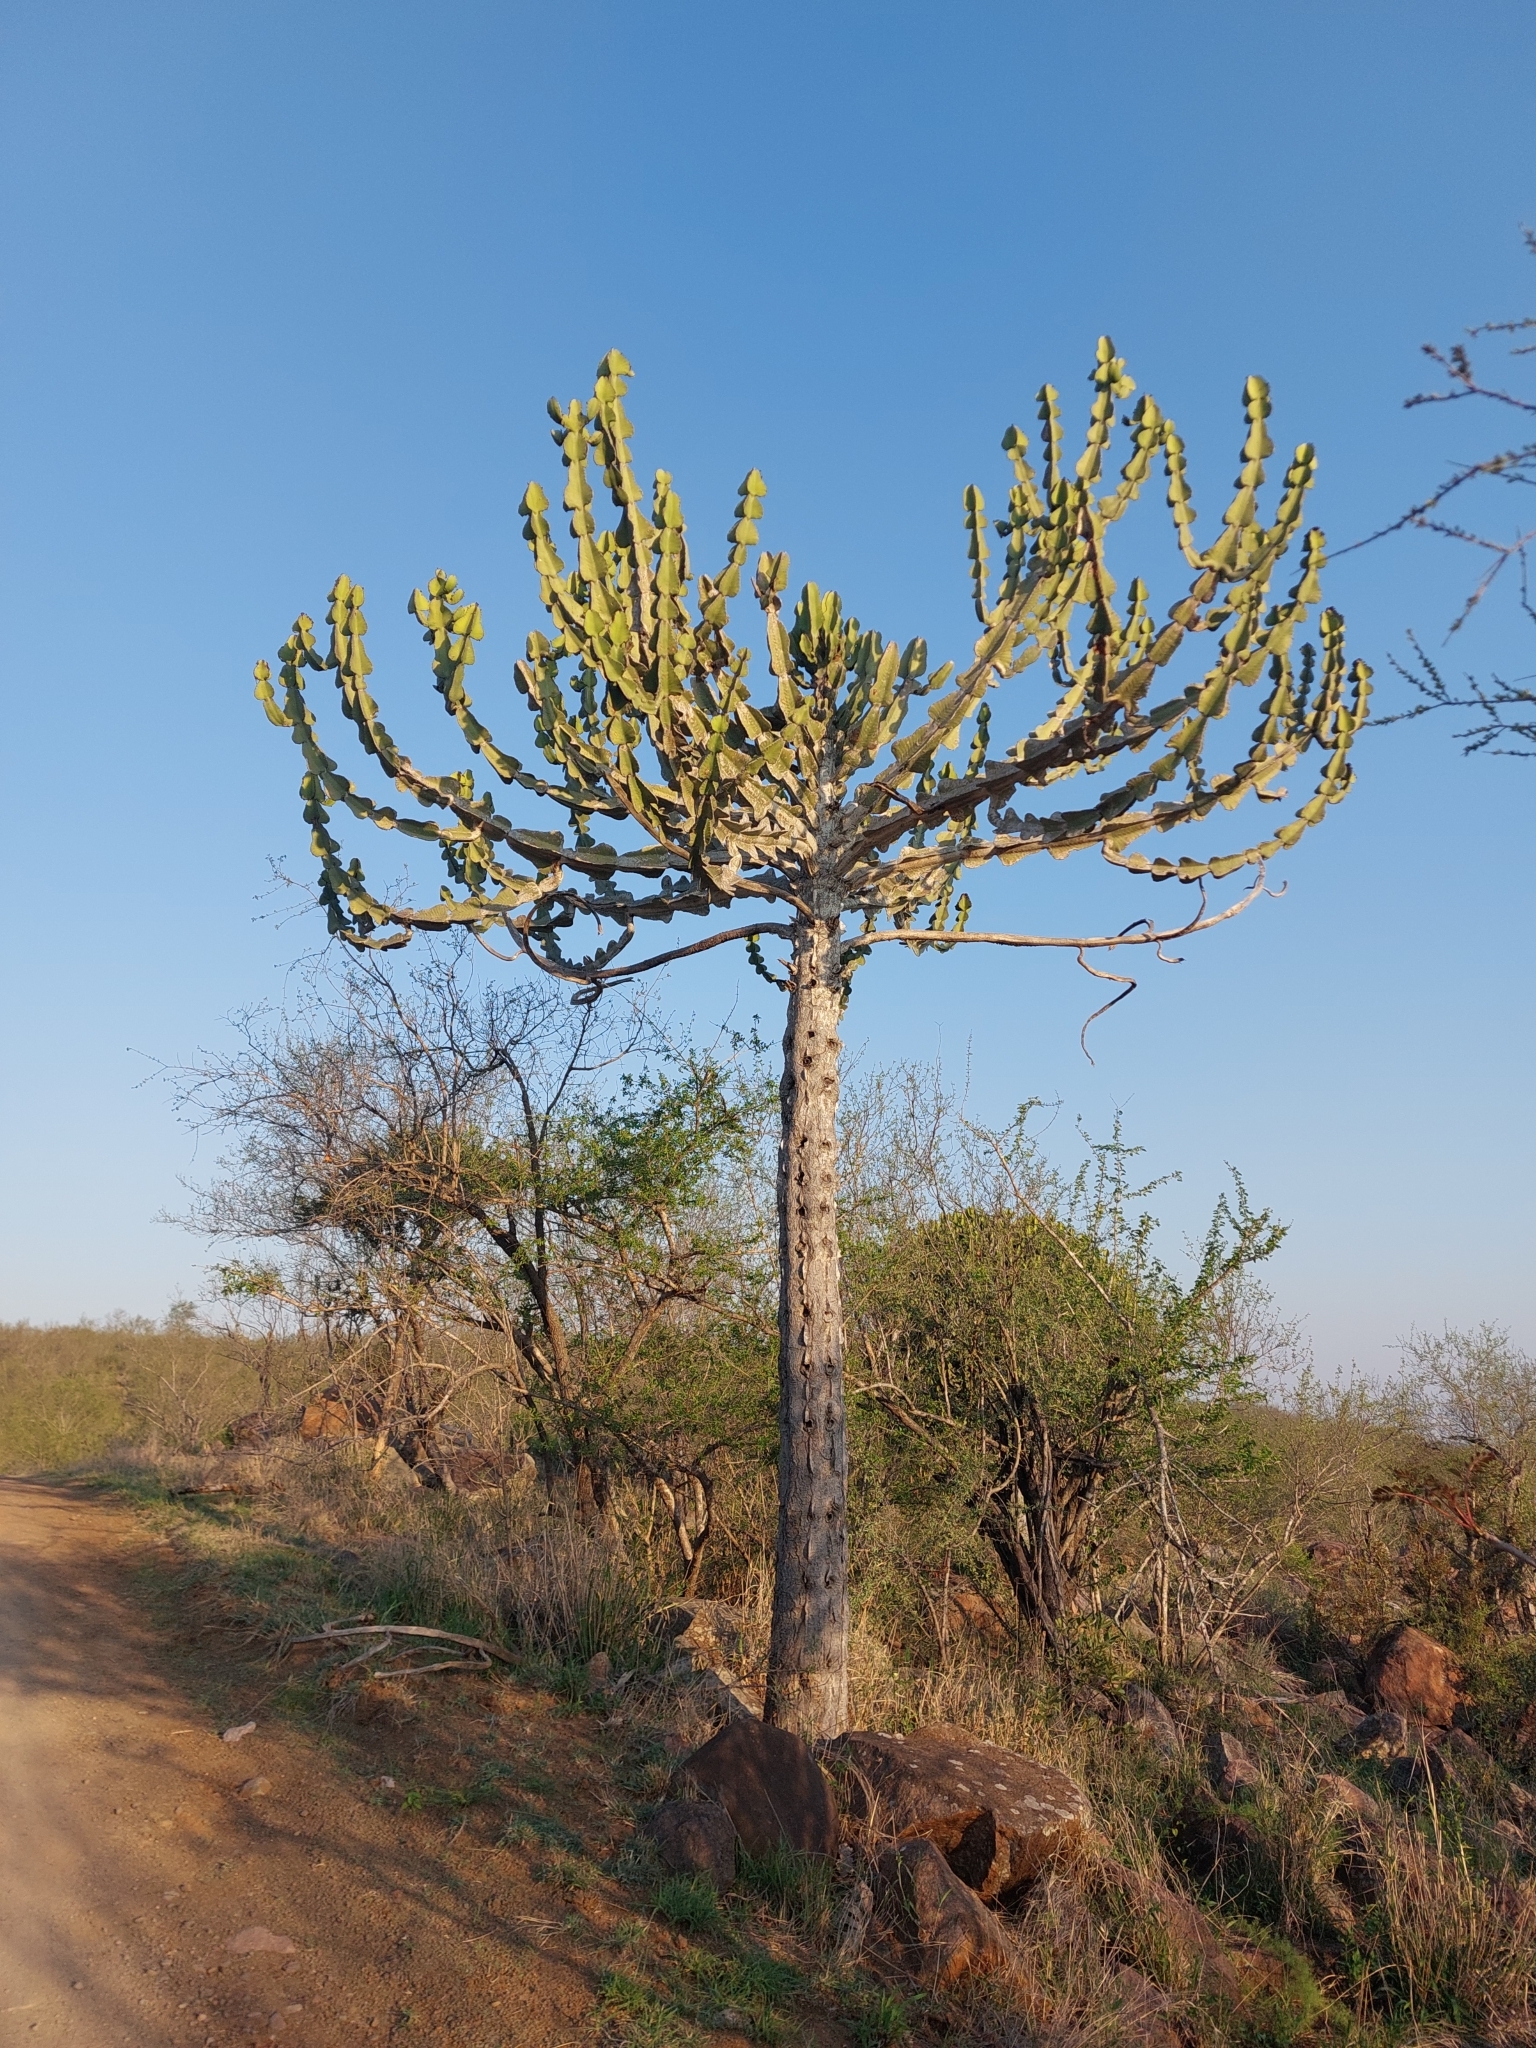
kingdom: Plantae
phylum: Tracheophyta
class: Magnoliopsida
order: Malpighiales
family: Euphorbiaceae
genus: Euphorbia
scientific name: Euphorbia cooperi
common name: Candelabra tree
